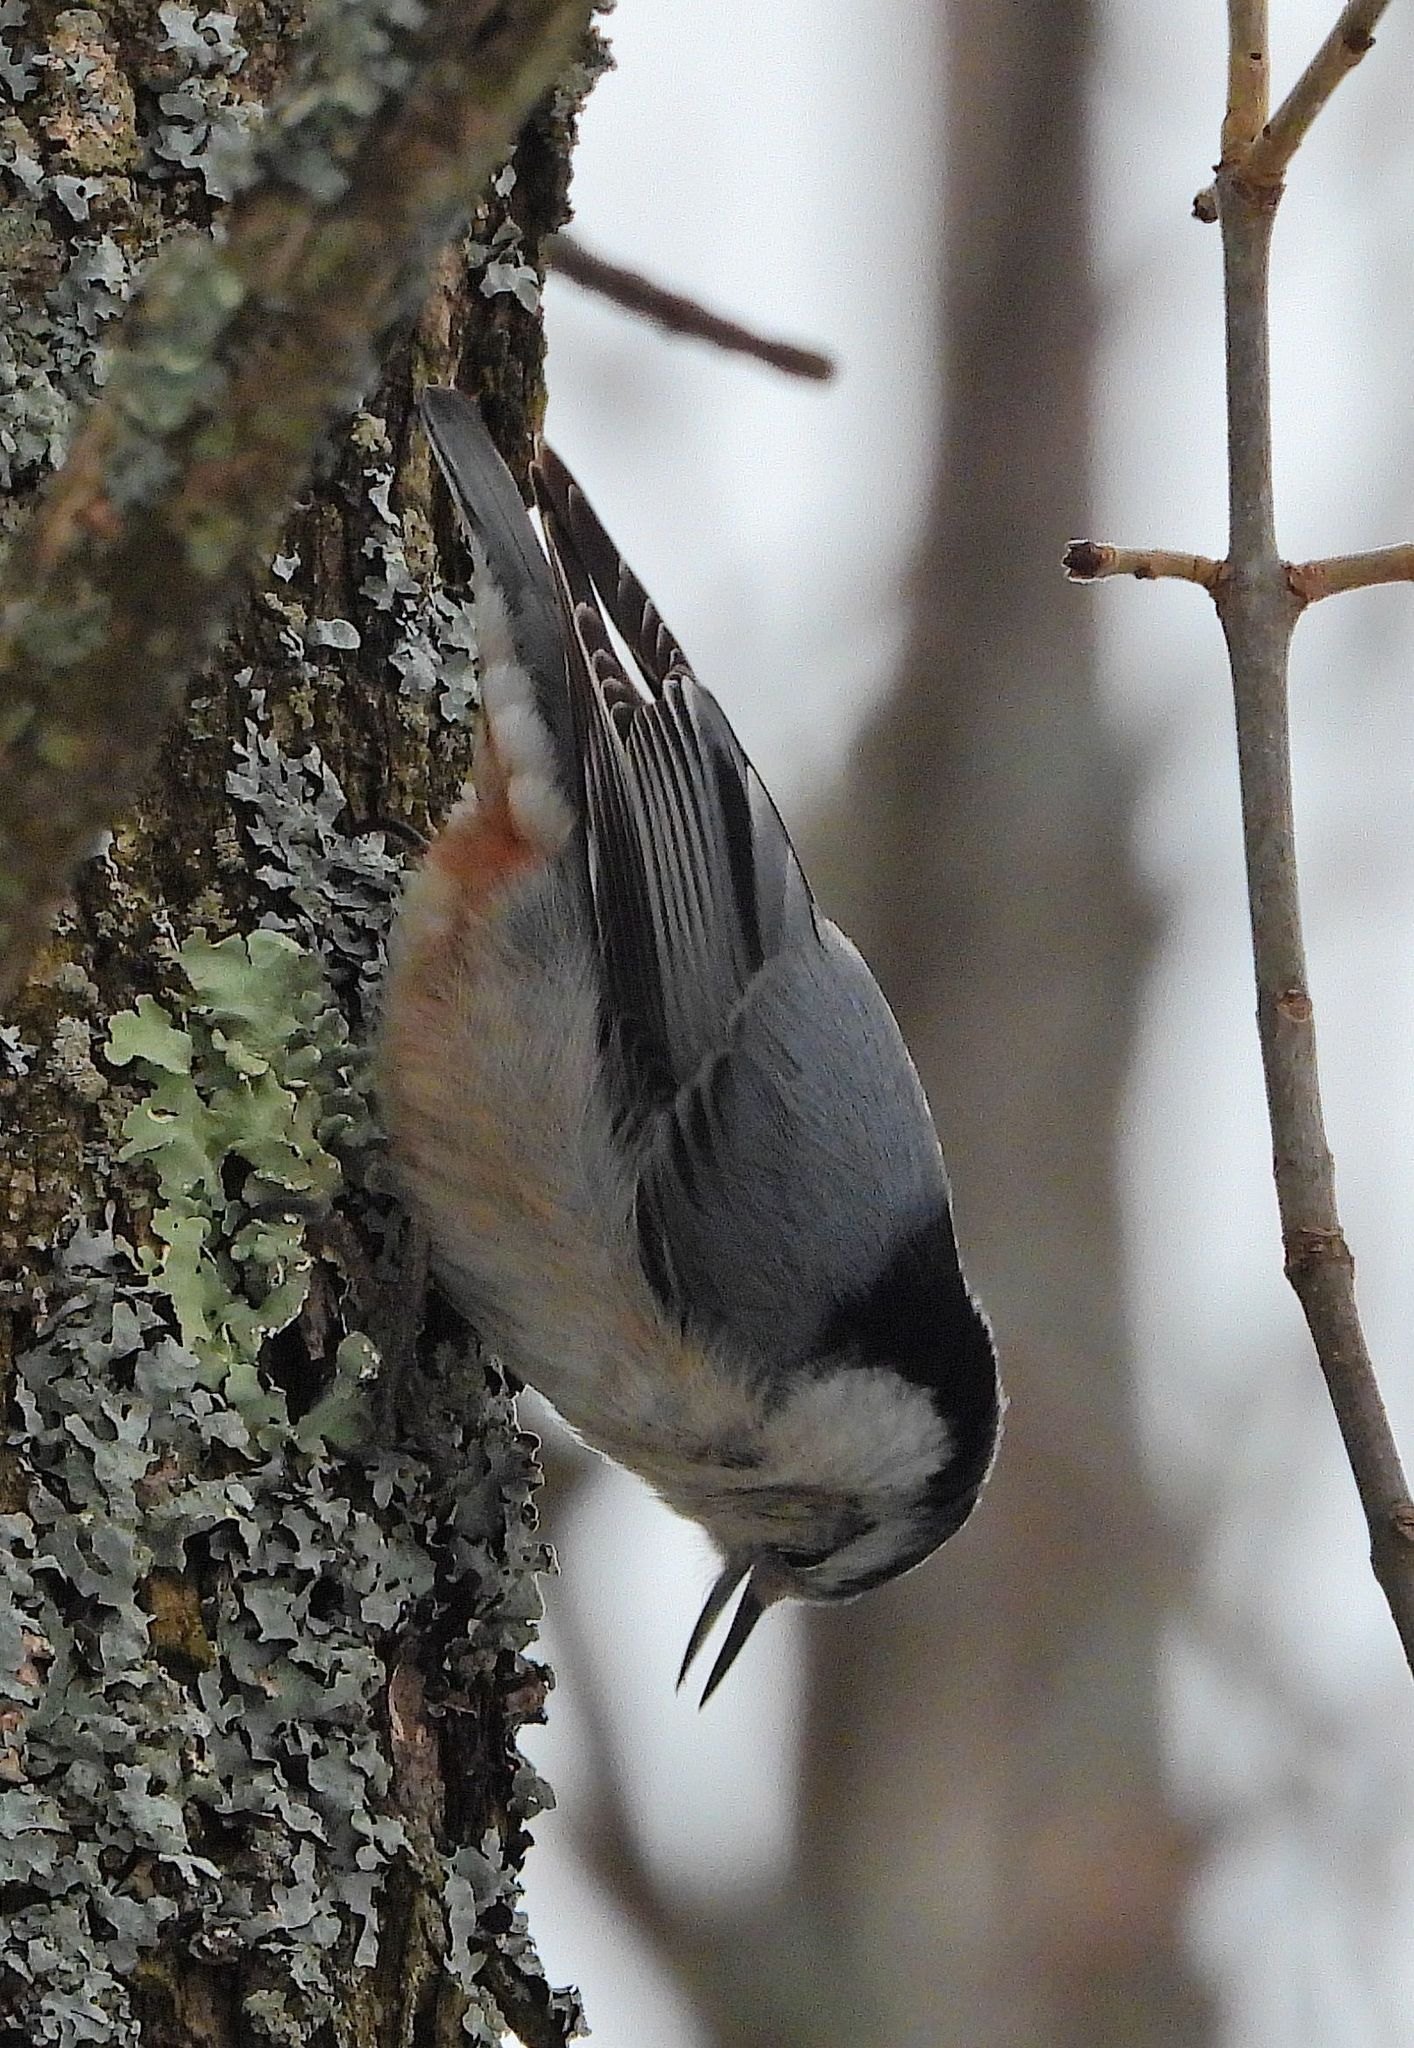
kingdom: Animalia
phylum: Chordata
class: Aves
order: Passeriformes
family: Sittidae
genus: Sitta
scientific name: Sitta carolinensis
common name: White-breasted nuthatch
